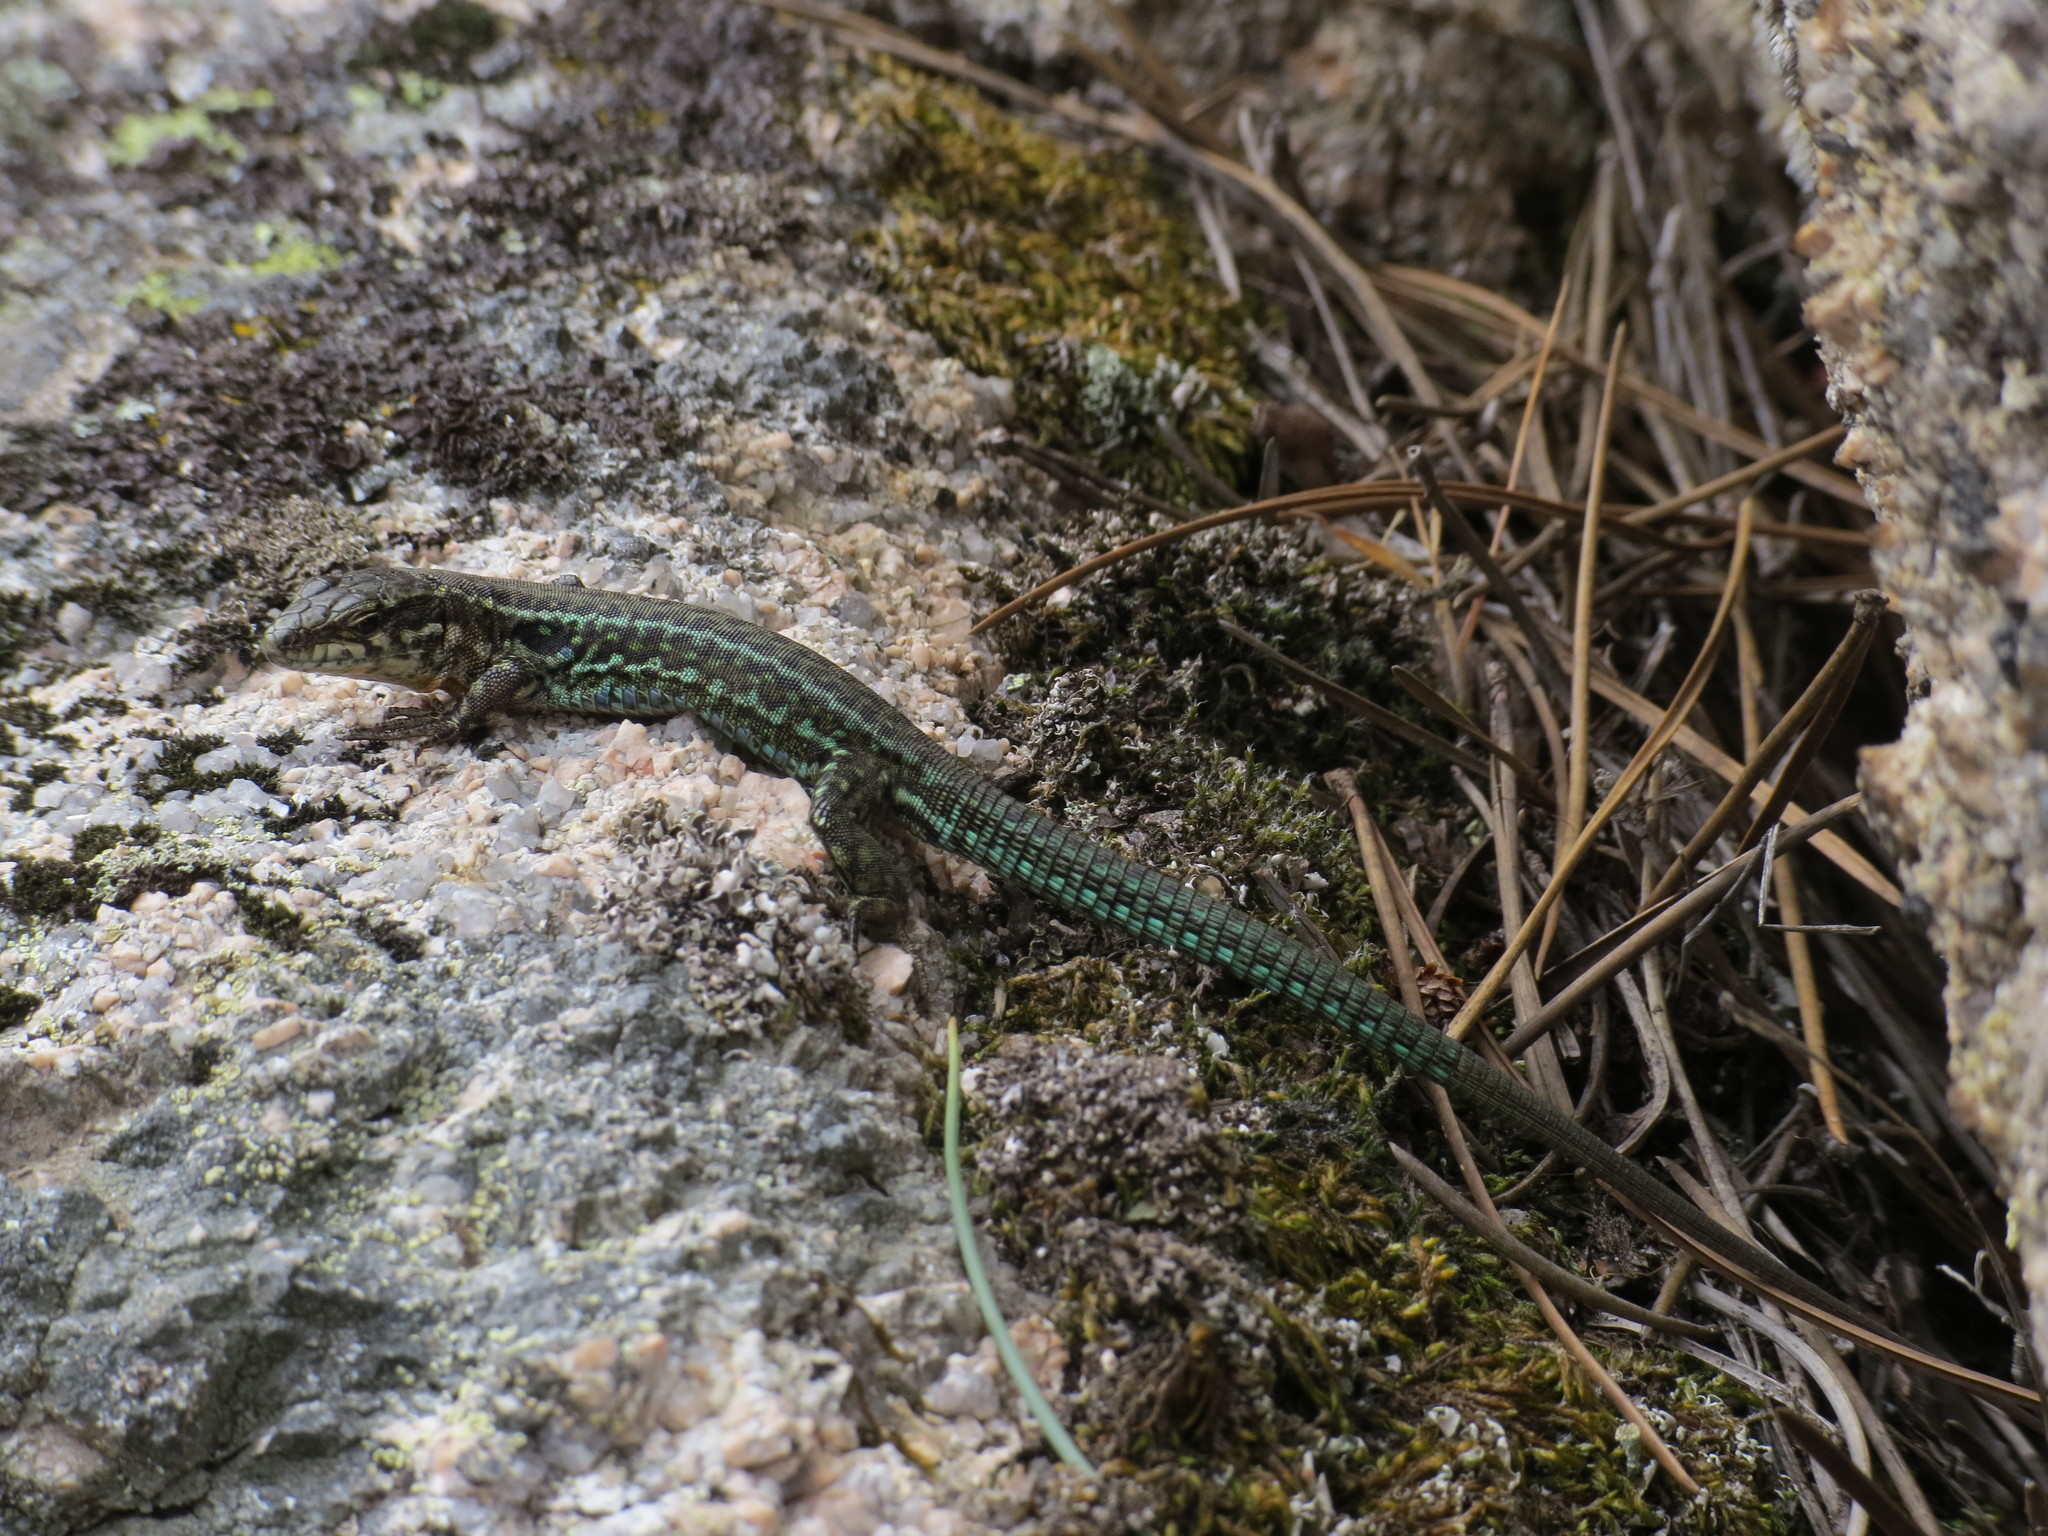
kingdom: Animalia
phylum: Chordata
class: Squamata
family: Lacertidae
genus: Podarcis
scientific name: Podarcis tiliguerta
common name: Tyrrhenian wall lizard
